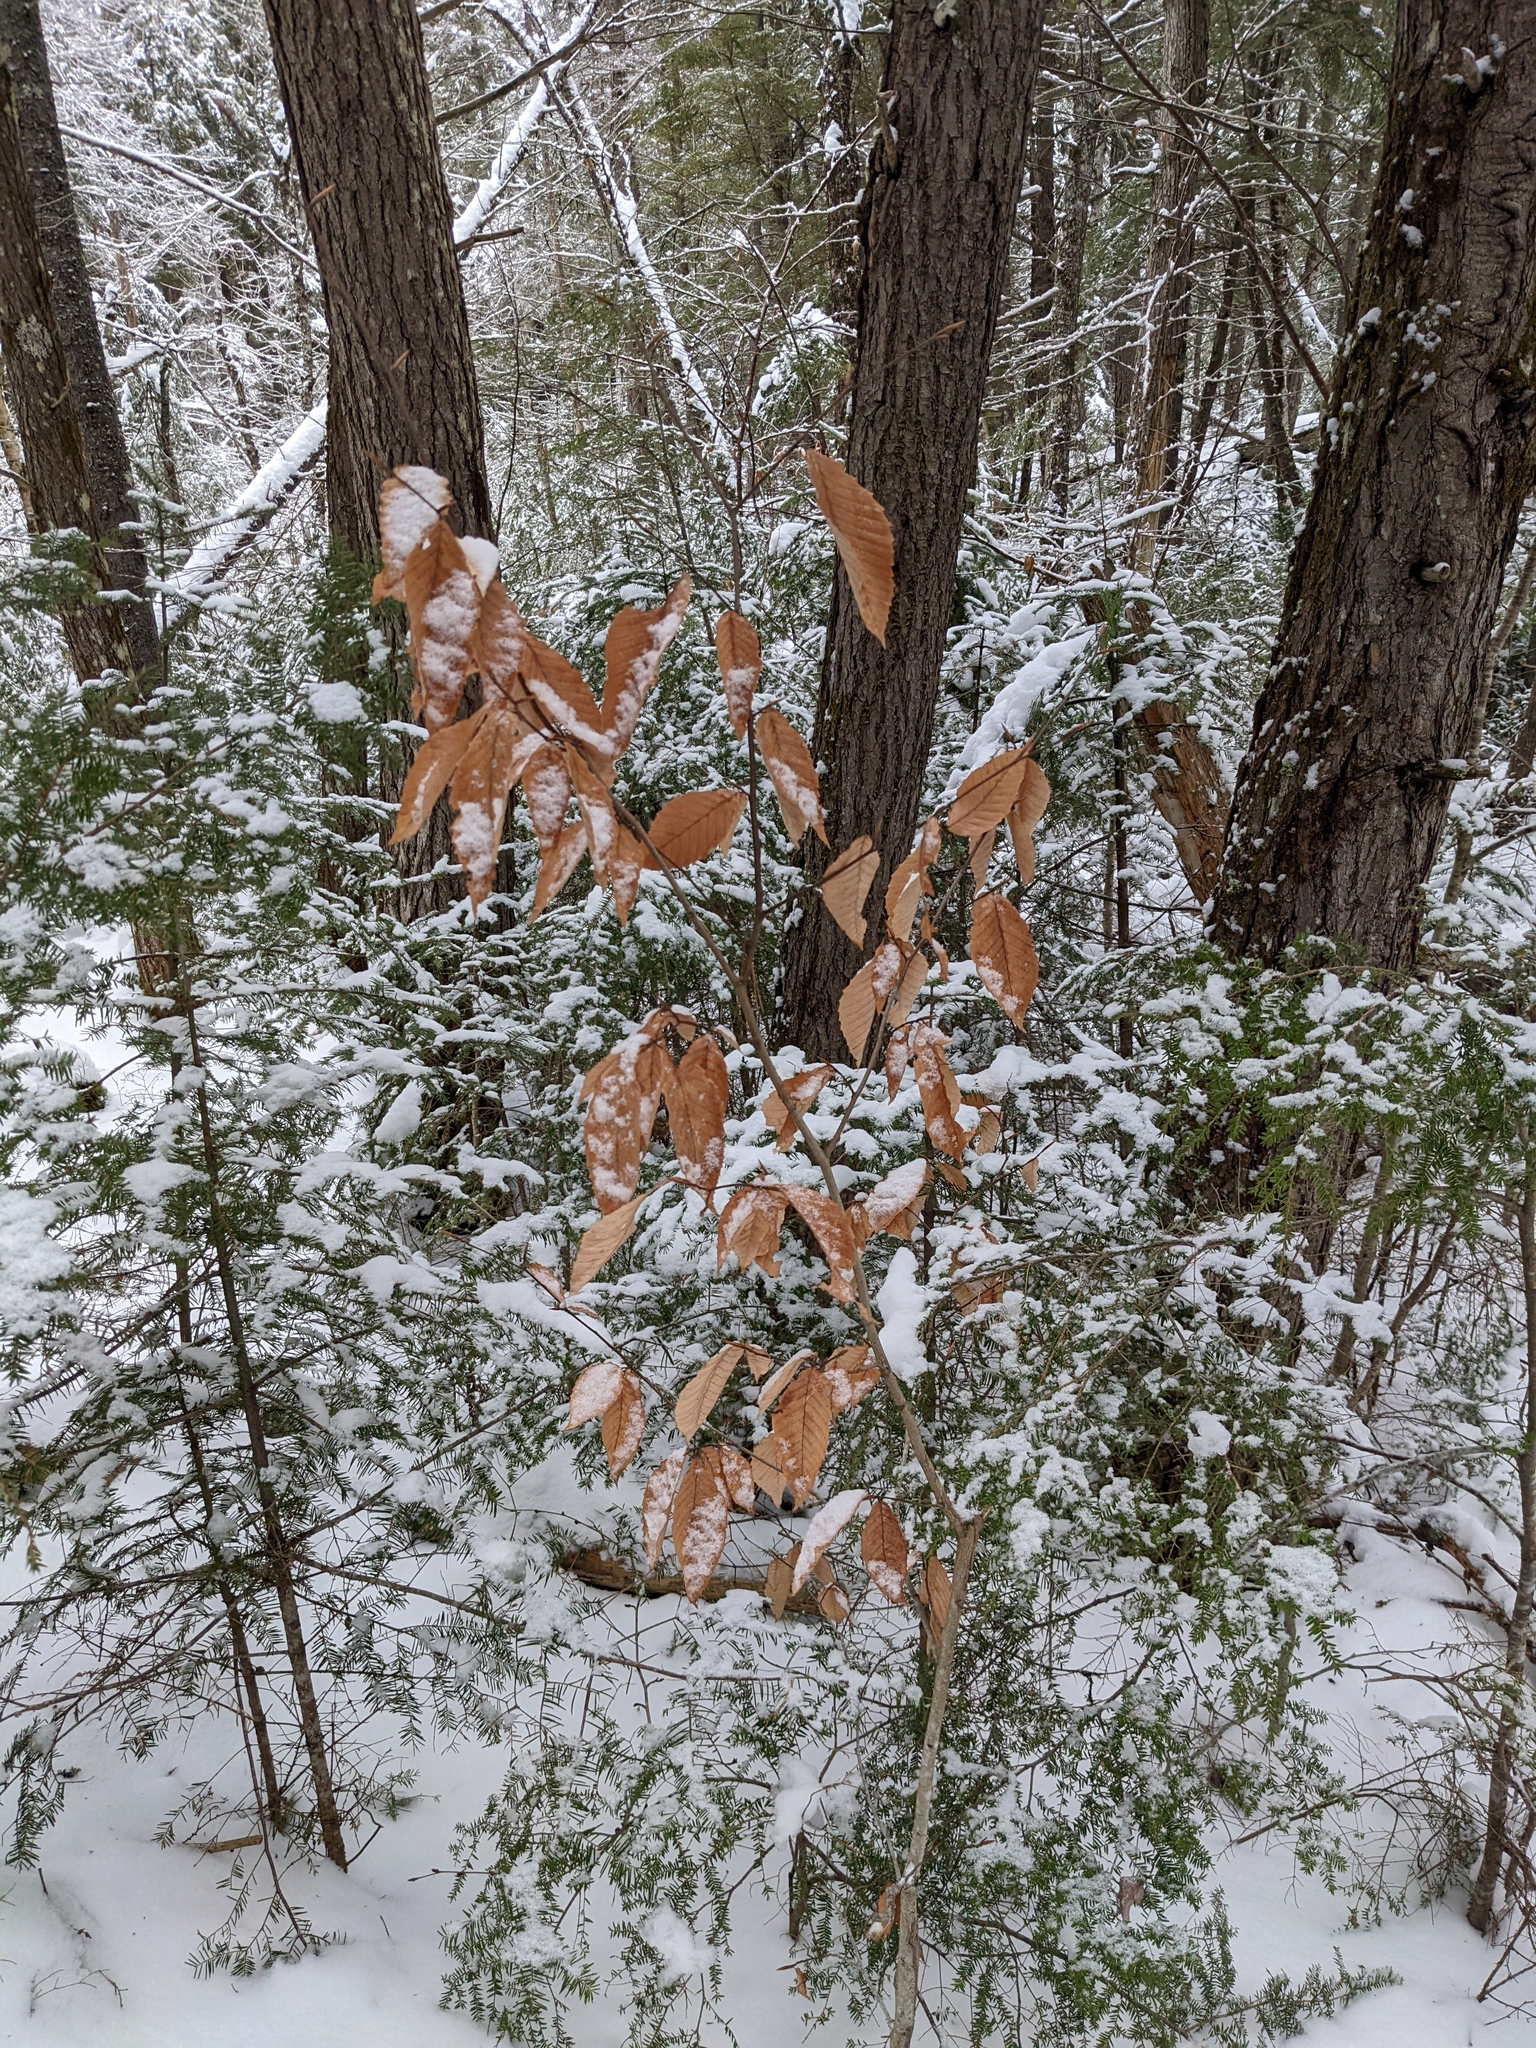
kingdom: Plantae
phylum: Tracheophyta
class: Magnoliopsida
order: Fagales
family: Fagaceae
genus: Fagus
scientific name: Fagus grandifolia
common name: American beech
